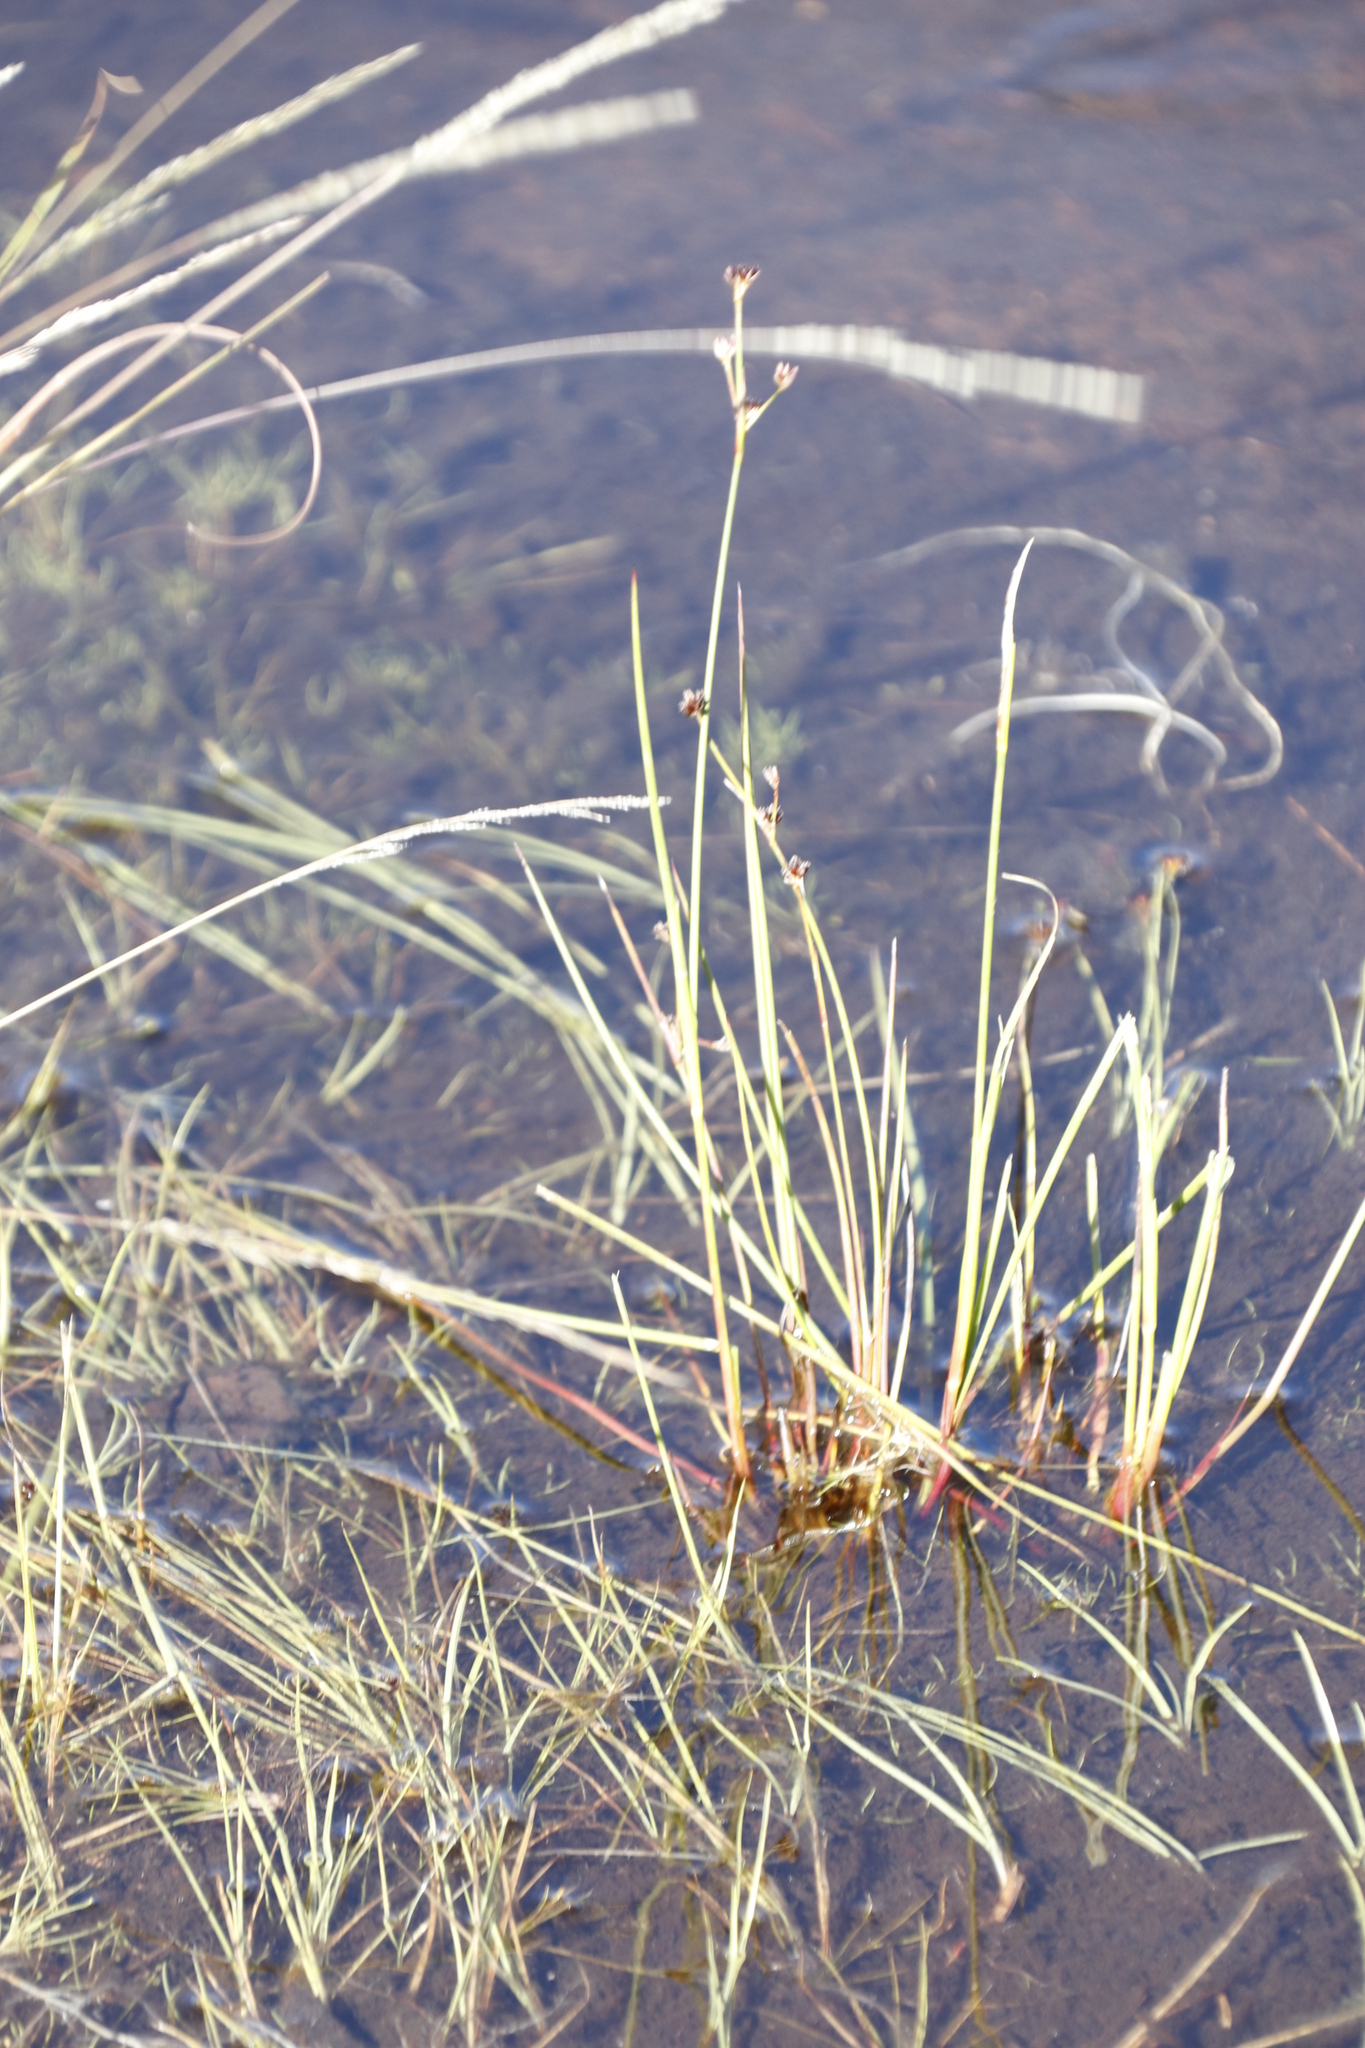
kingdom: Plantae
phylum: Tracheophyta
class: Liliopsida
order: Poales
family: Juncaceae
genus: Juncus
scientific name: Juncus lomatophyllus
